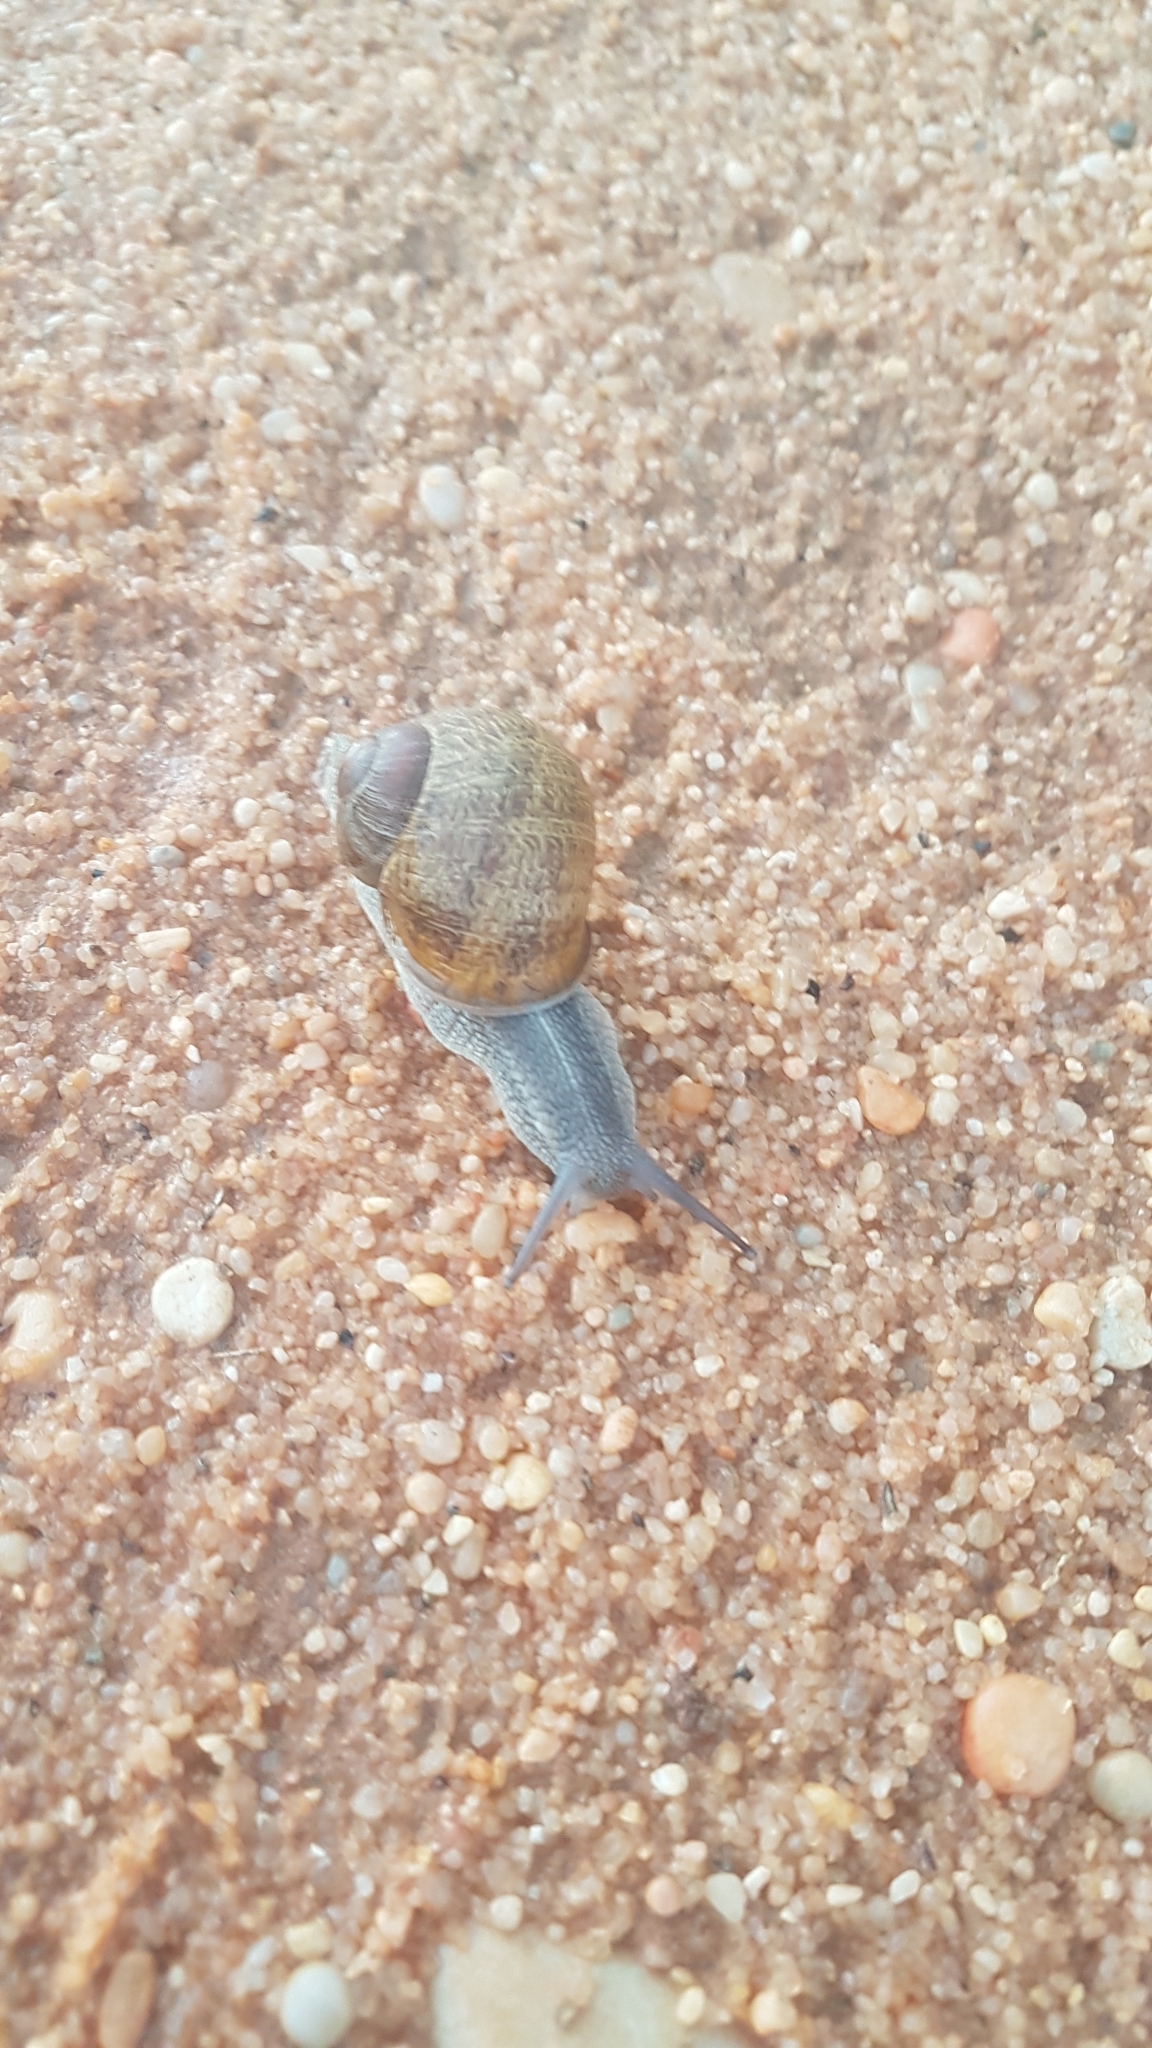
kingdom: Animalia
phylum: Mollusca
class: Gastropoda
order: Stylommatophora
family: Helicidae
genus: Cornu
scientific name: Cornu aspersum
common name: Brown garden snail
